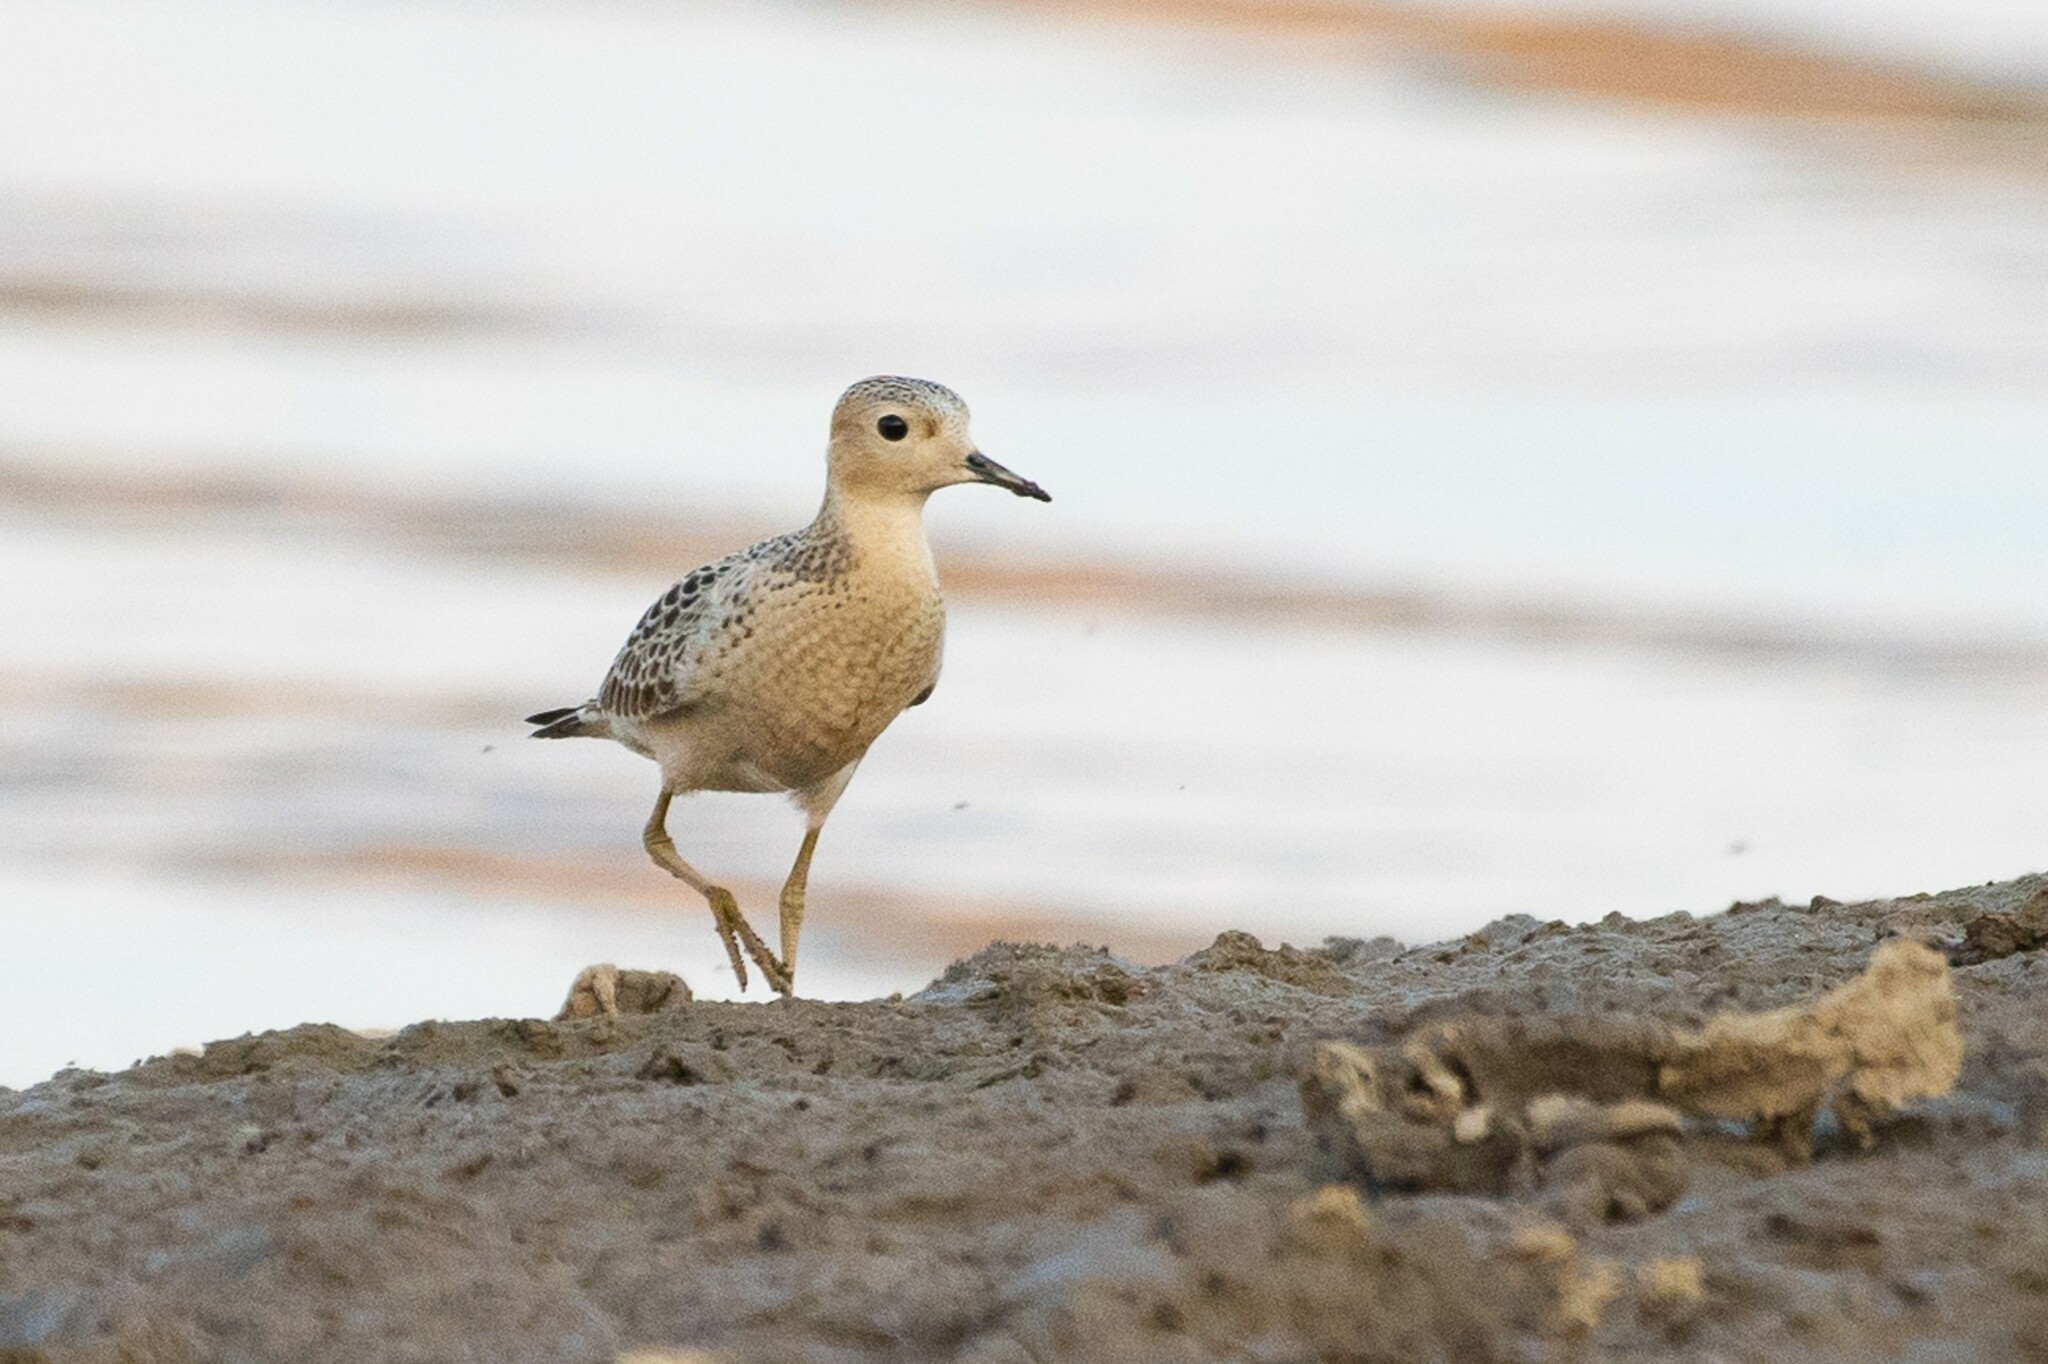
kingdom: Animalia
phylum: Chordata
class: Aves
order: Charadriiformes
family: Scolopacidae
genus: Calidris
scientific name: Calidris subruficollis
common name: Buff-breasted sandpiper
